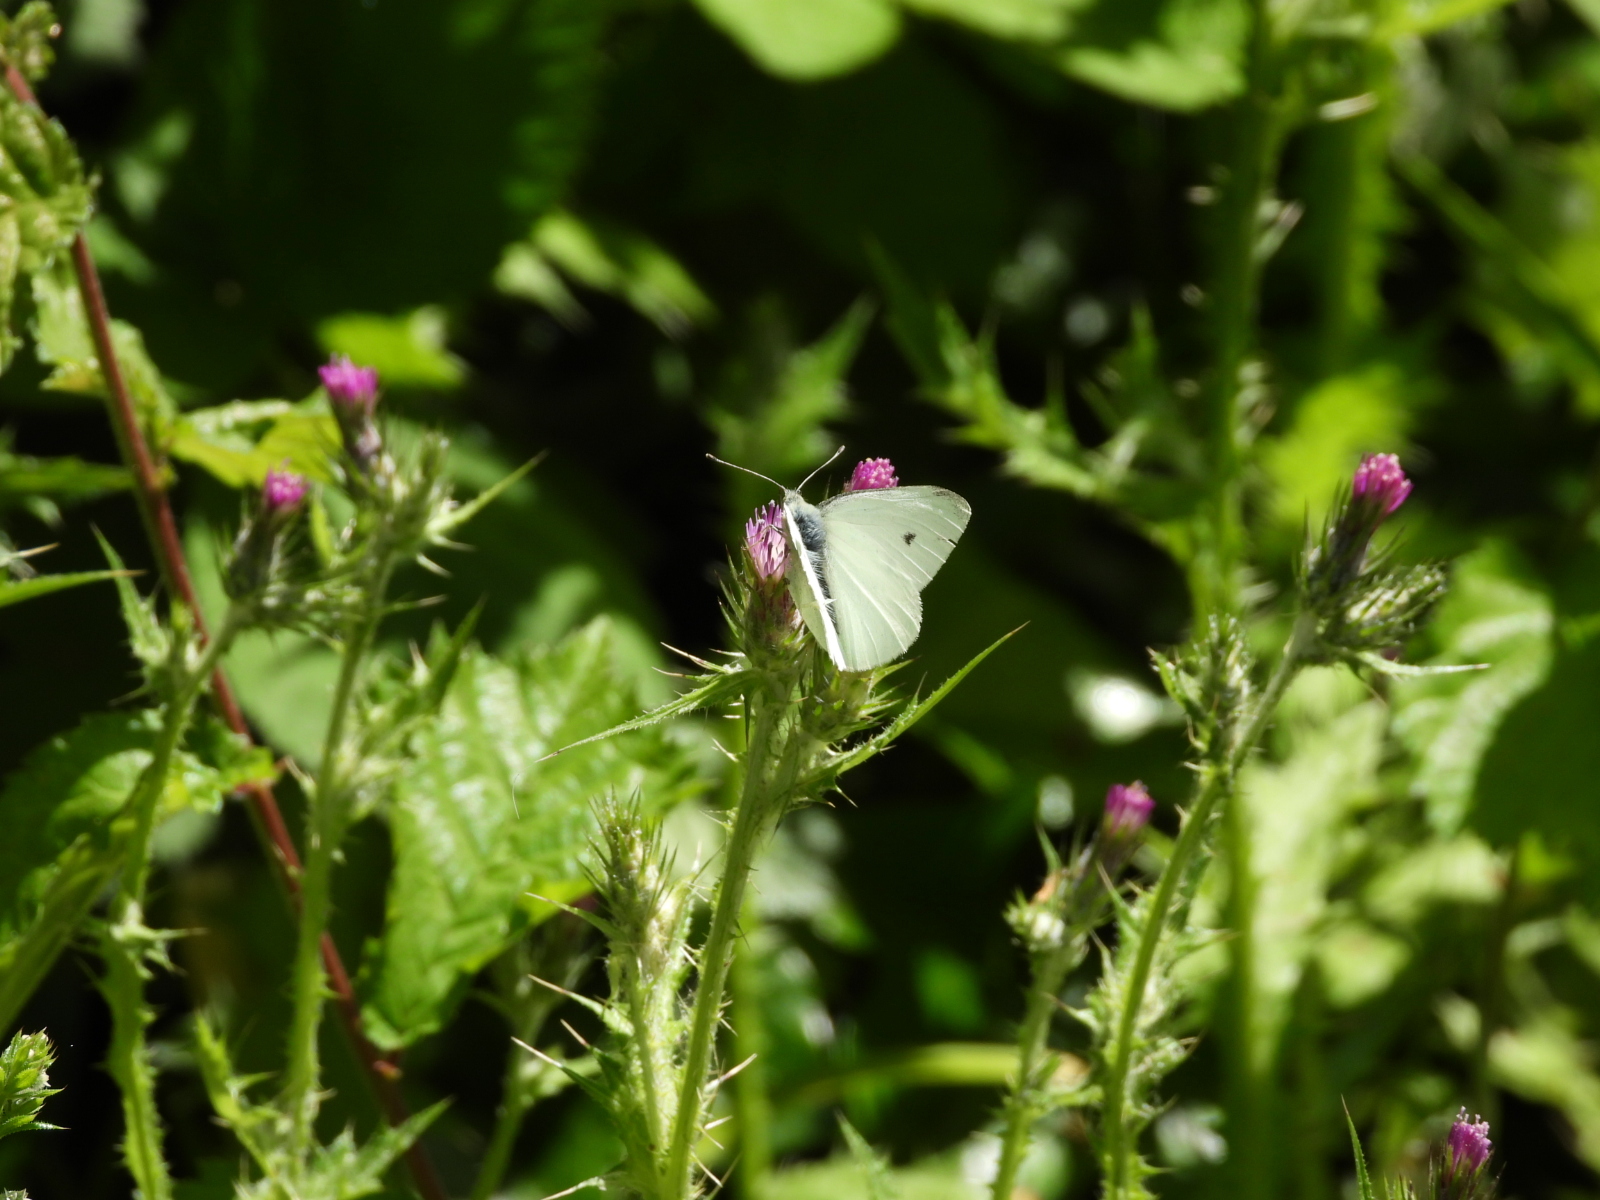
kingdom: Animalia
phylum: Arthropoda
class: Insecta
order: Lepidoptera
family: Pieridae
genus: Pieris
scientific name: Pieris rapae
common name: Small white
